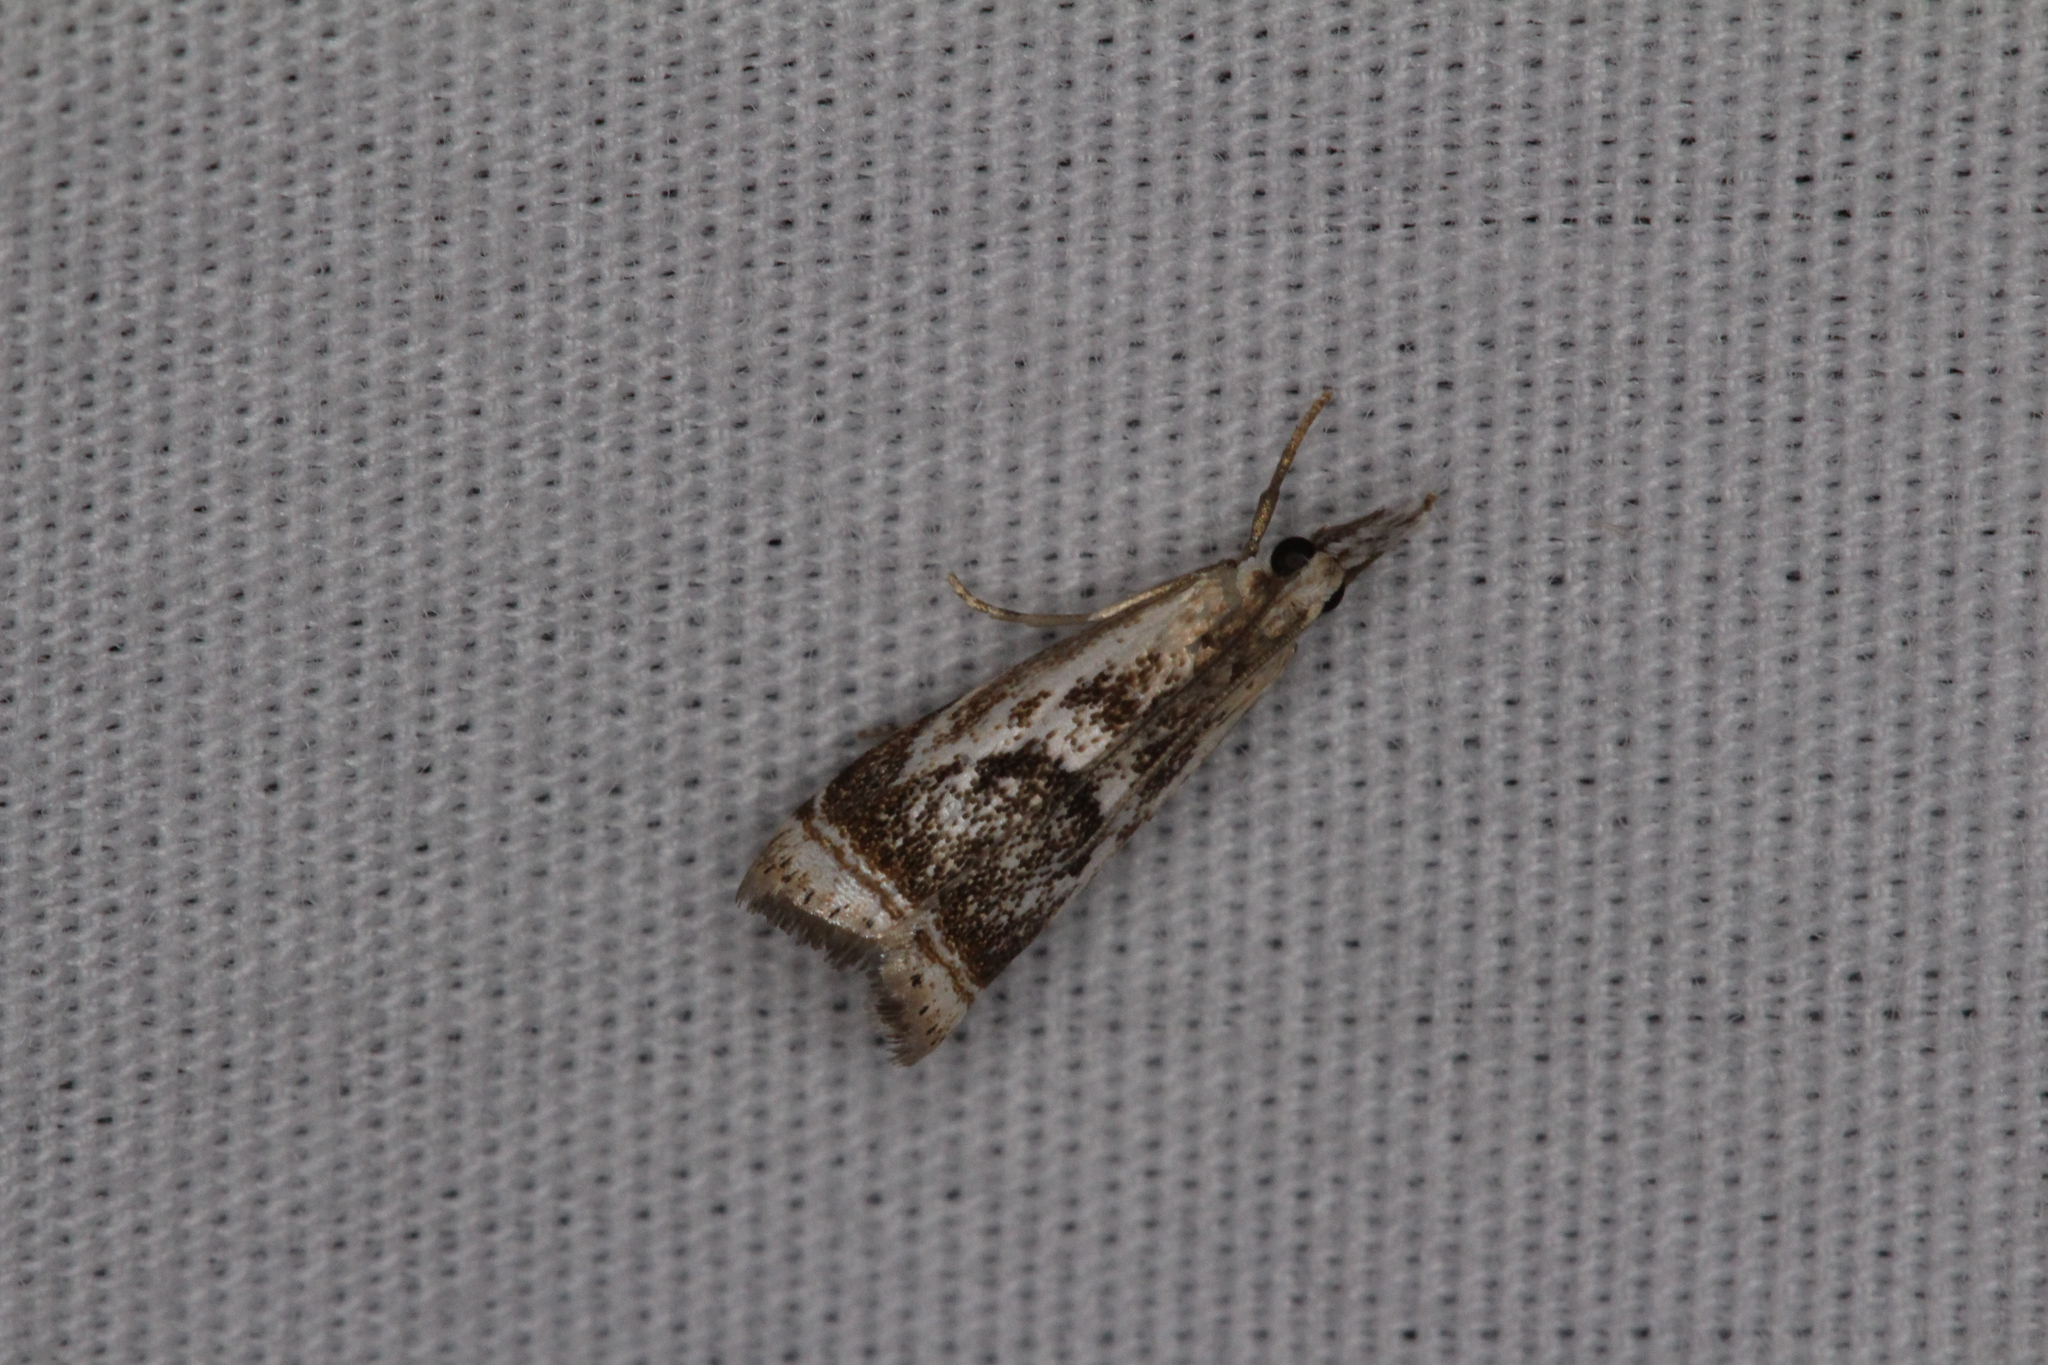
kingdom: Animalia
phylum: Arthropoda
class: Insecta
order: Lepidoptera
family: Crambidae
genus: Microcrambus
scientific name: Microcrambus elegans
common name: Elegant grass-veneer
